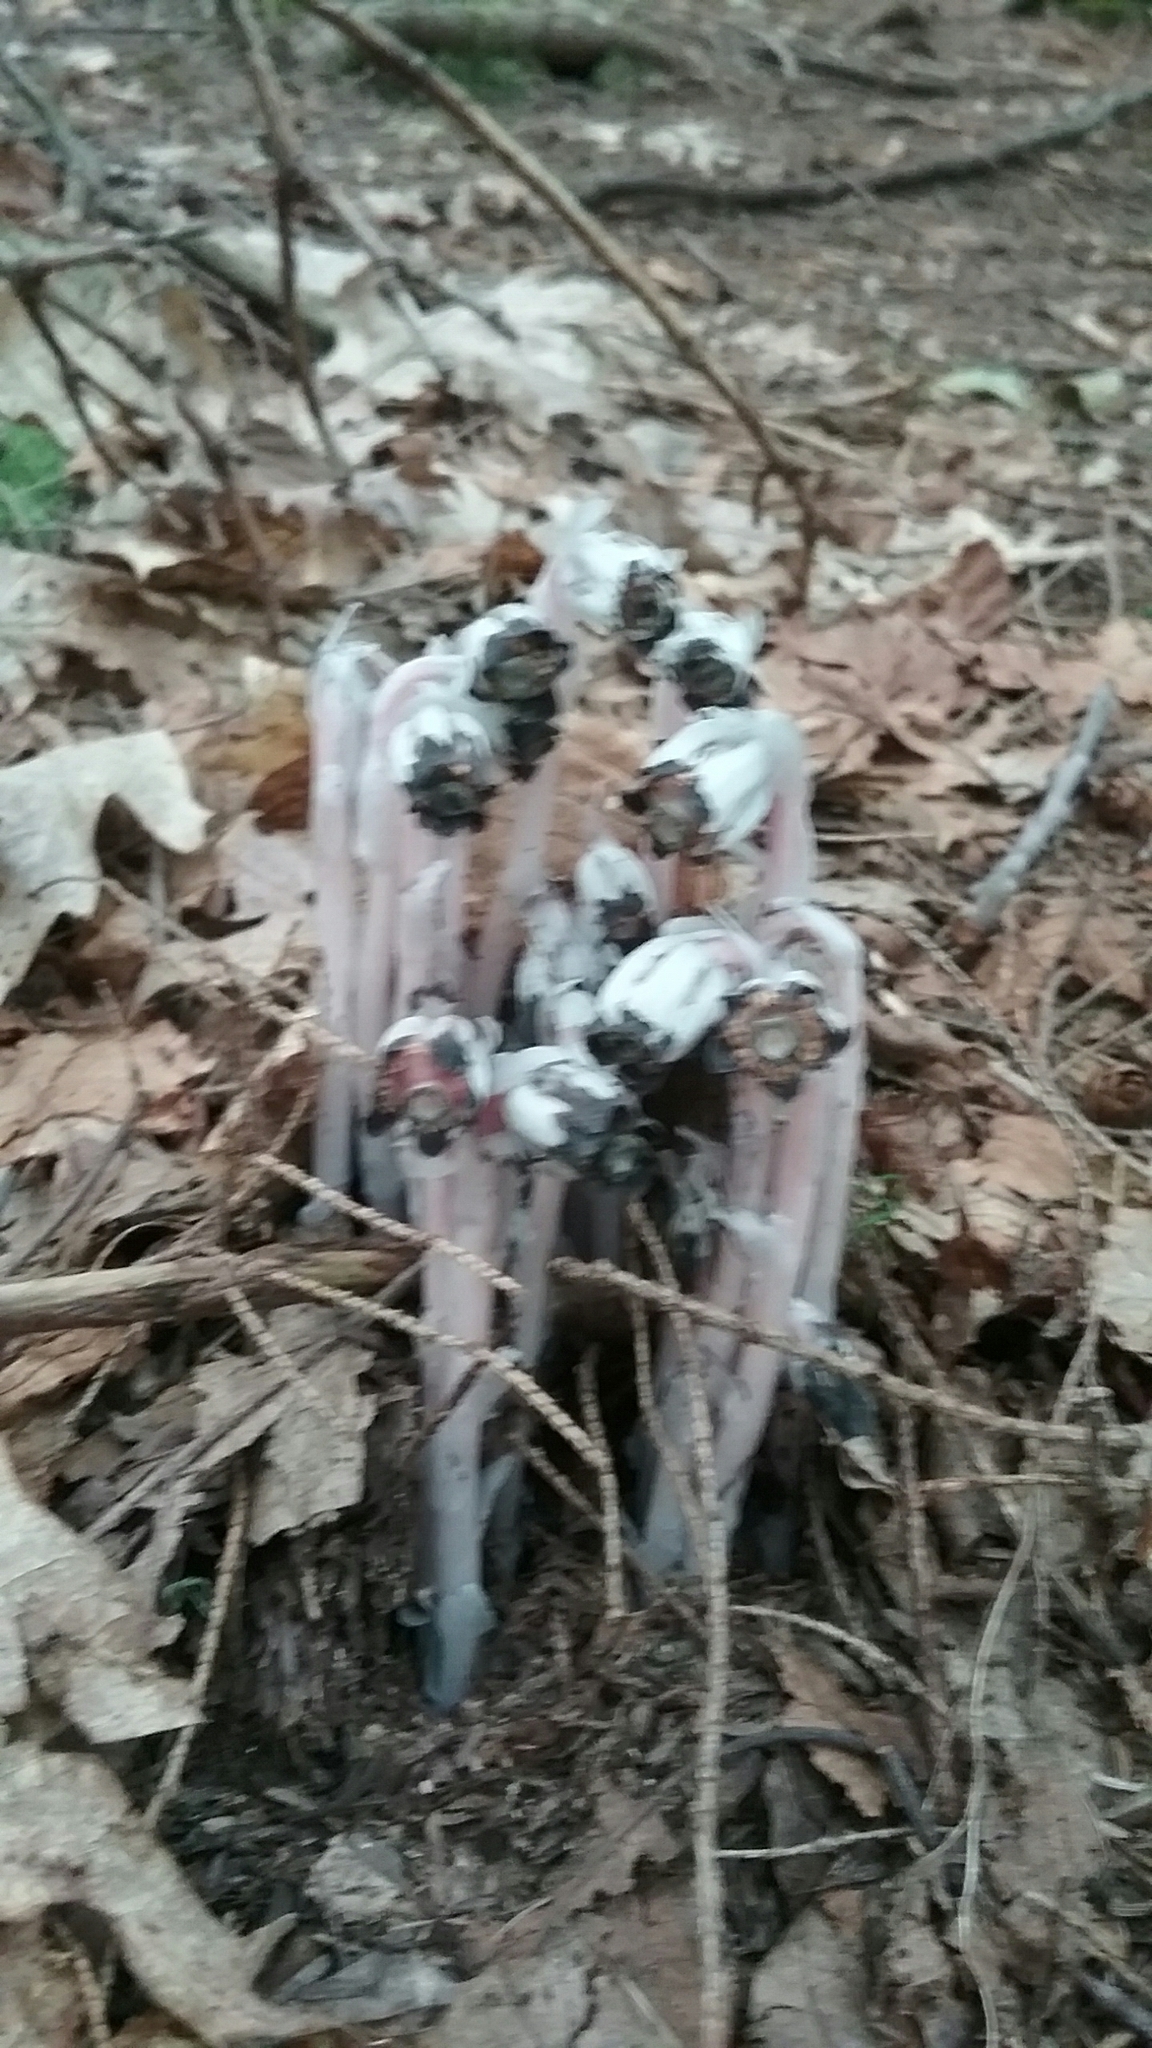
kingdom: Plantae
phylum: Tracheophyta
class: Magnoliopsida
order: Ericales
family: Ericaceae
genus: Monotropa
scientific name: Monotropa uniflora
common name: Convulsion root
